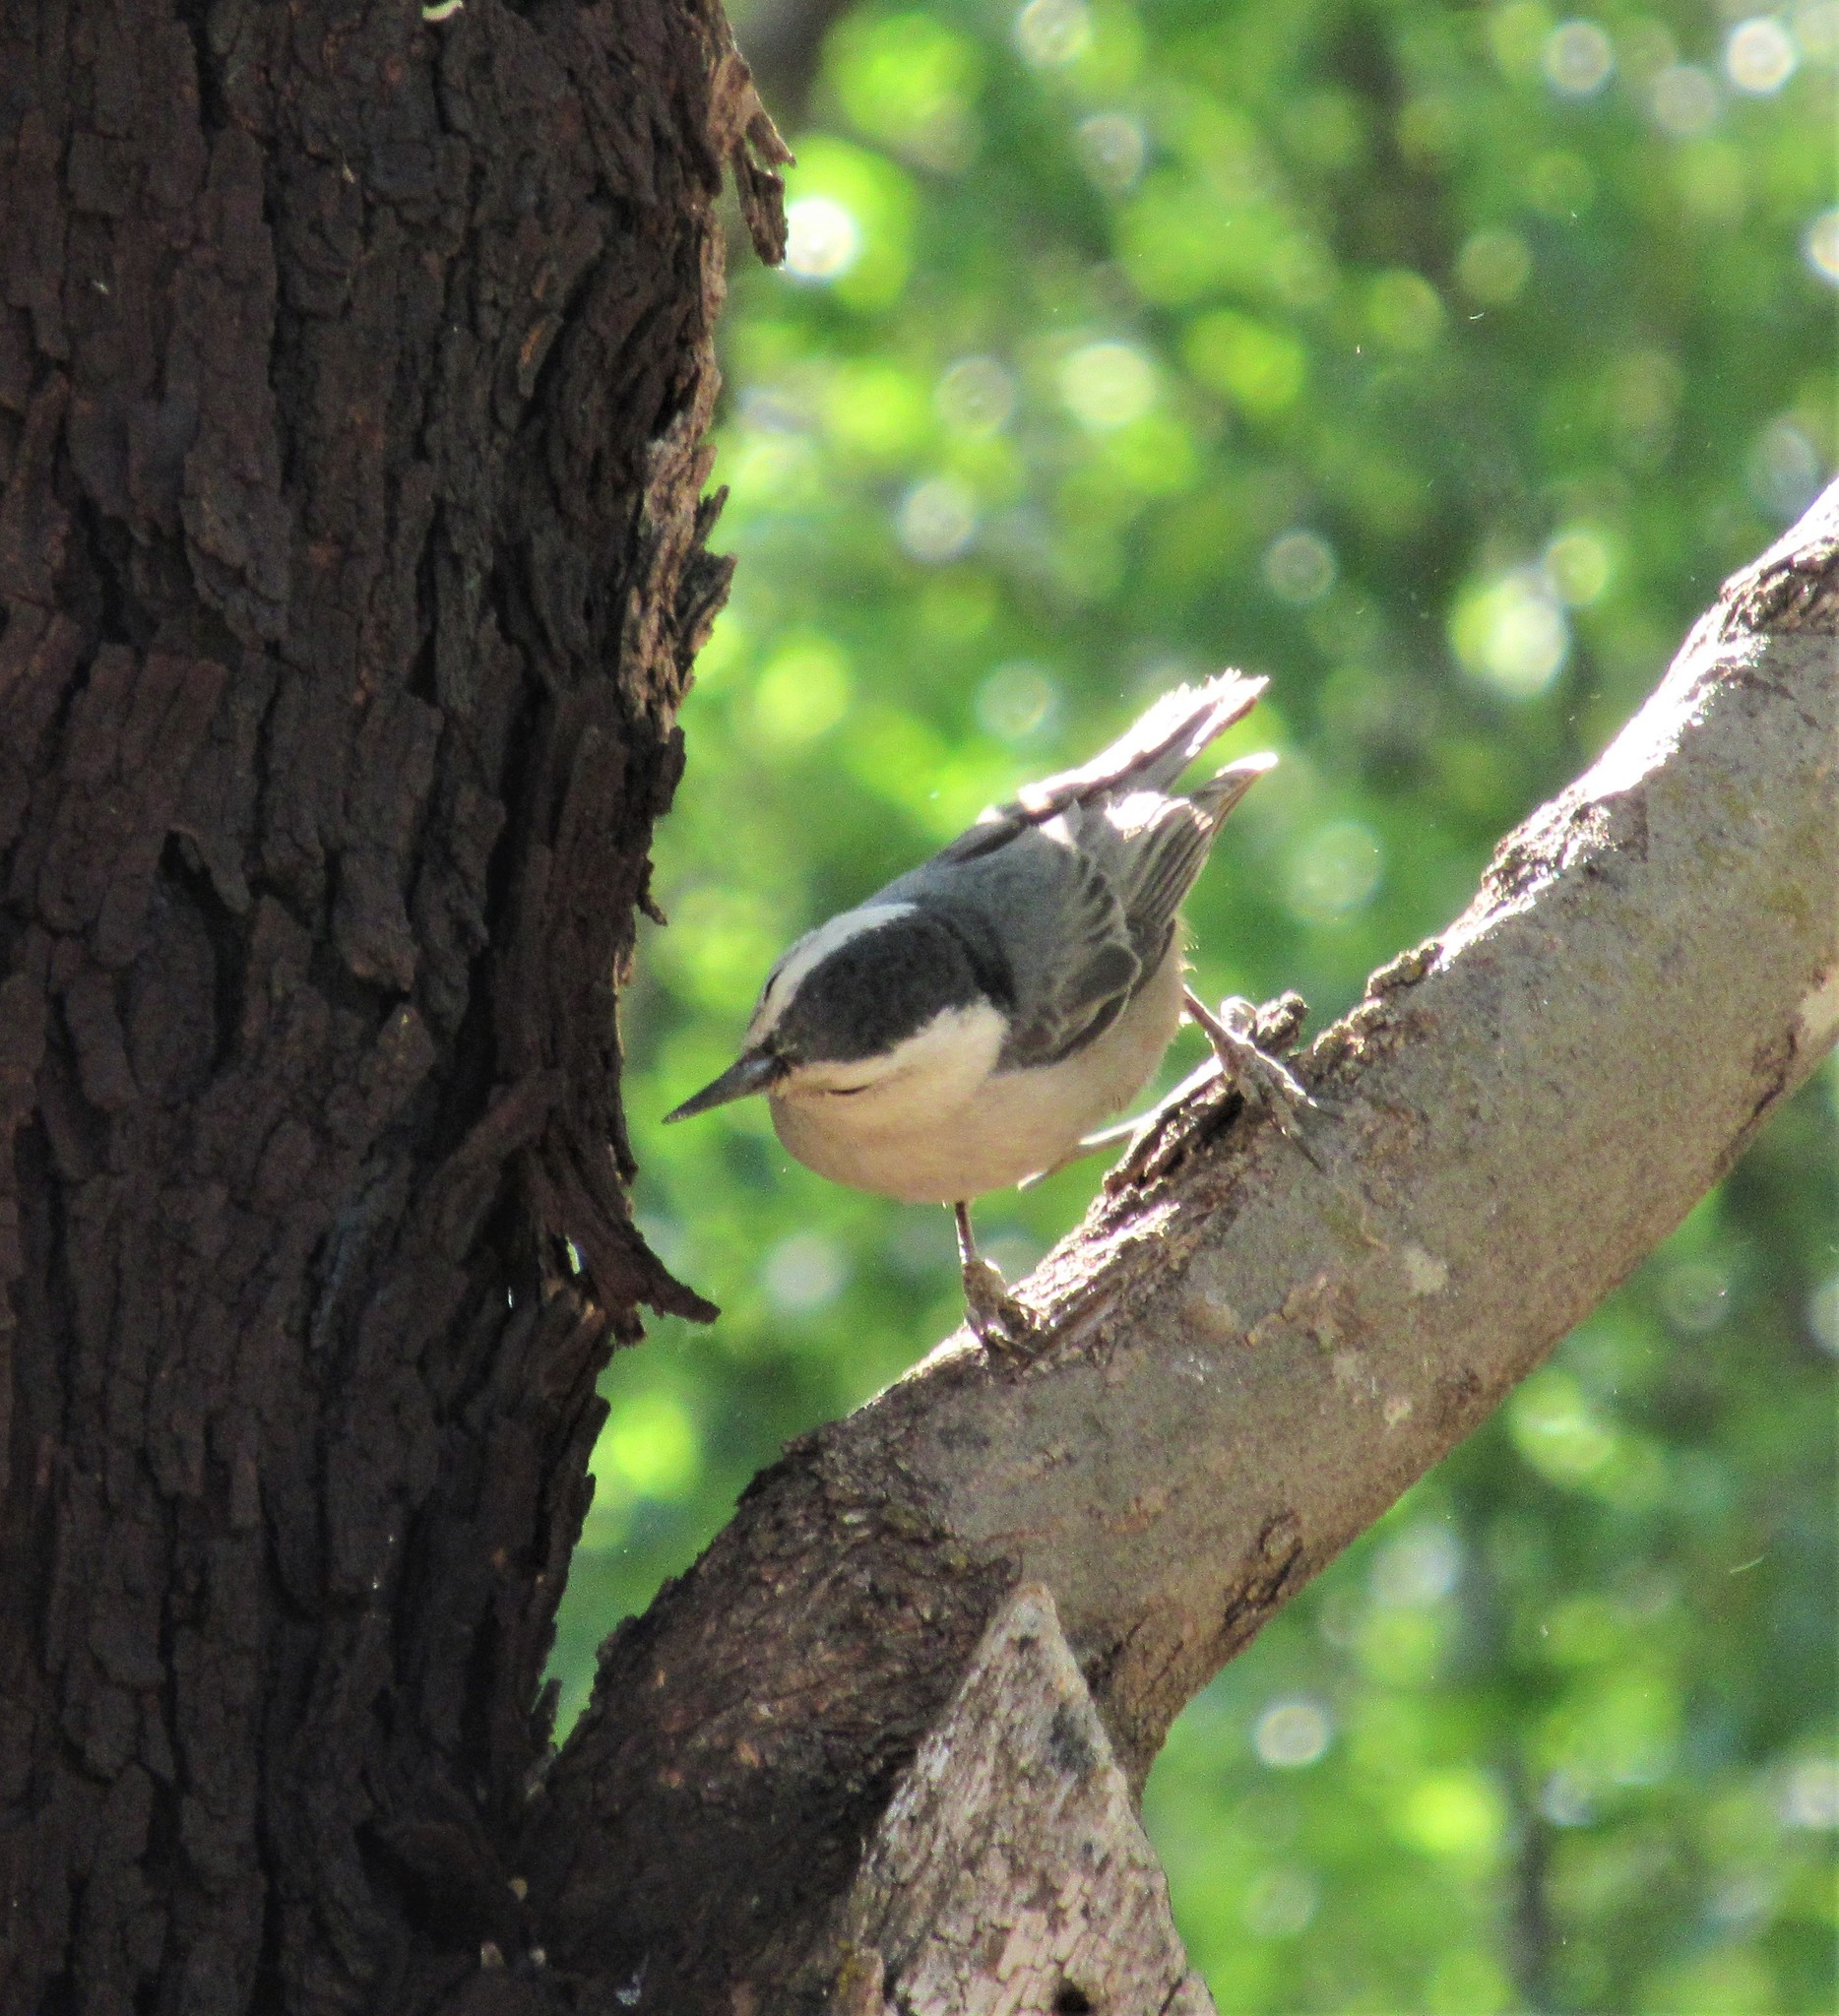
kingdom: Animalia
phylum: Chordata
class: Aves
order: Passeriformes
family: Sittidae
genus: Sitta
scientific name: Sitta carolinensis
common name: White-breasted nuthatch
